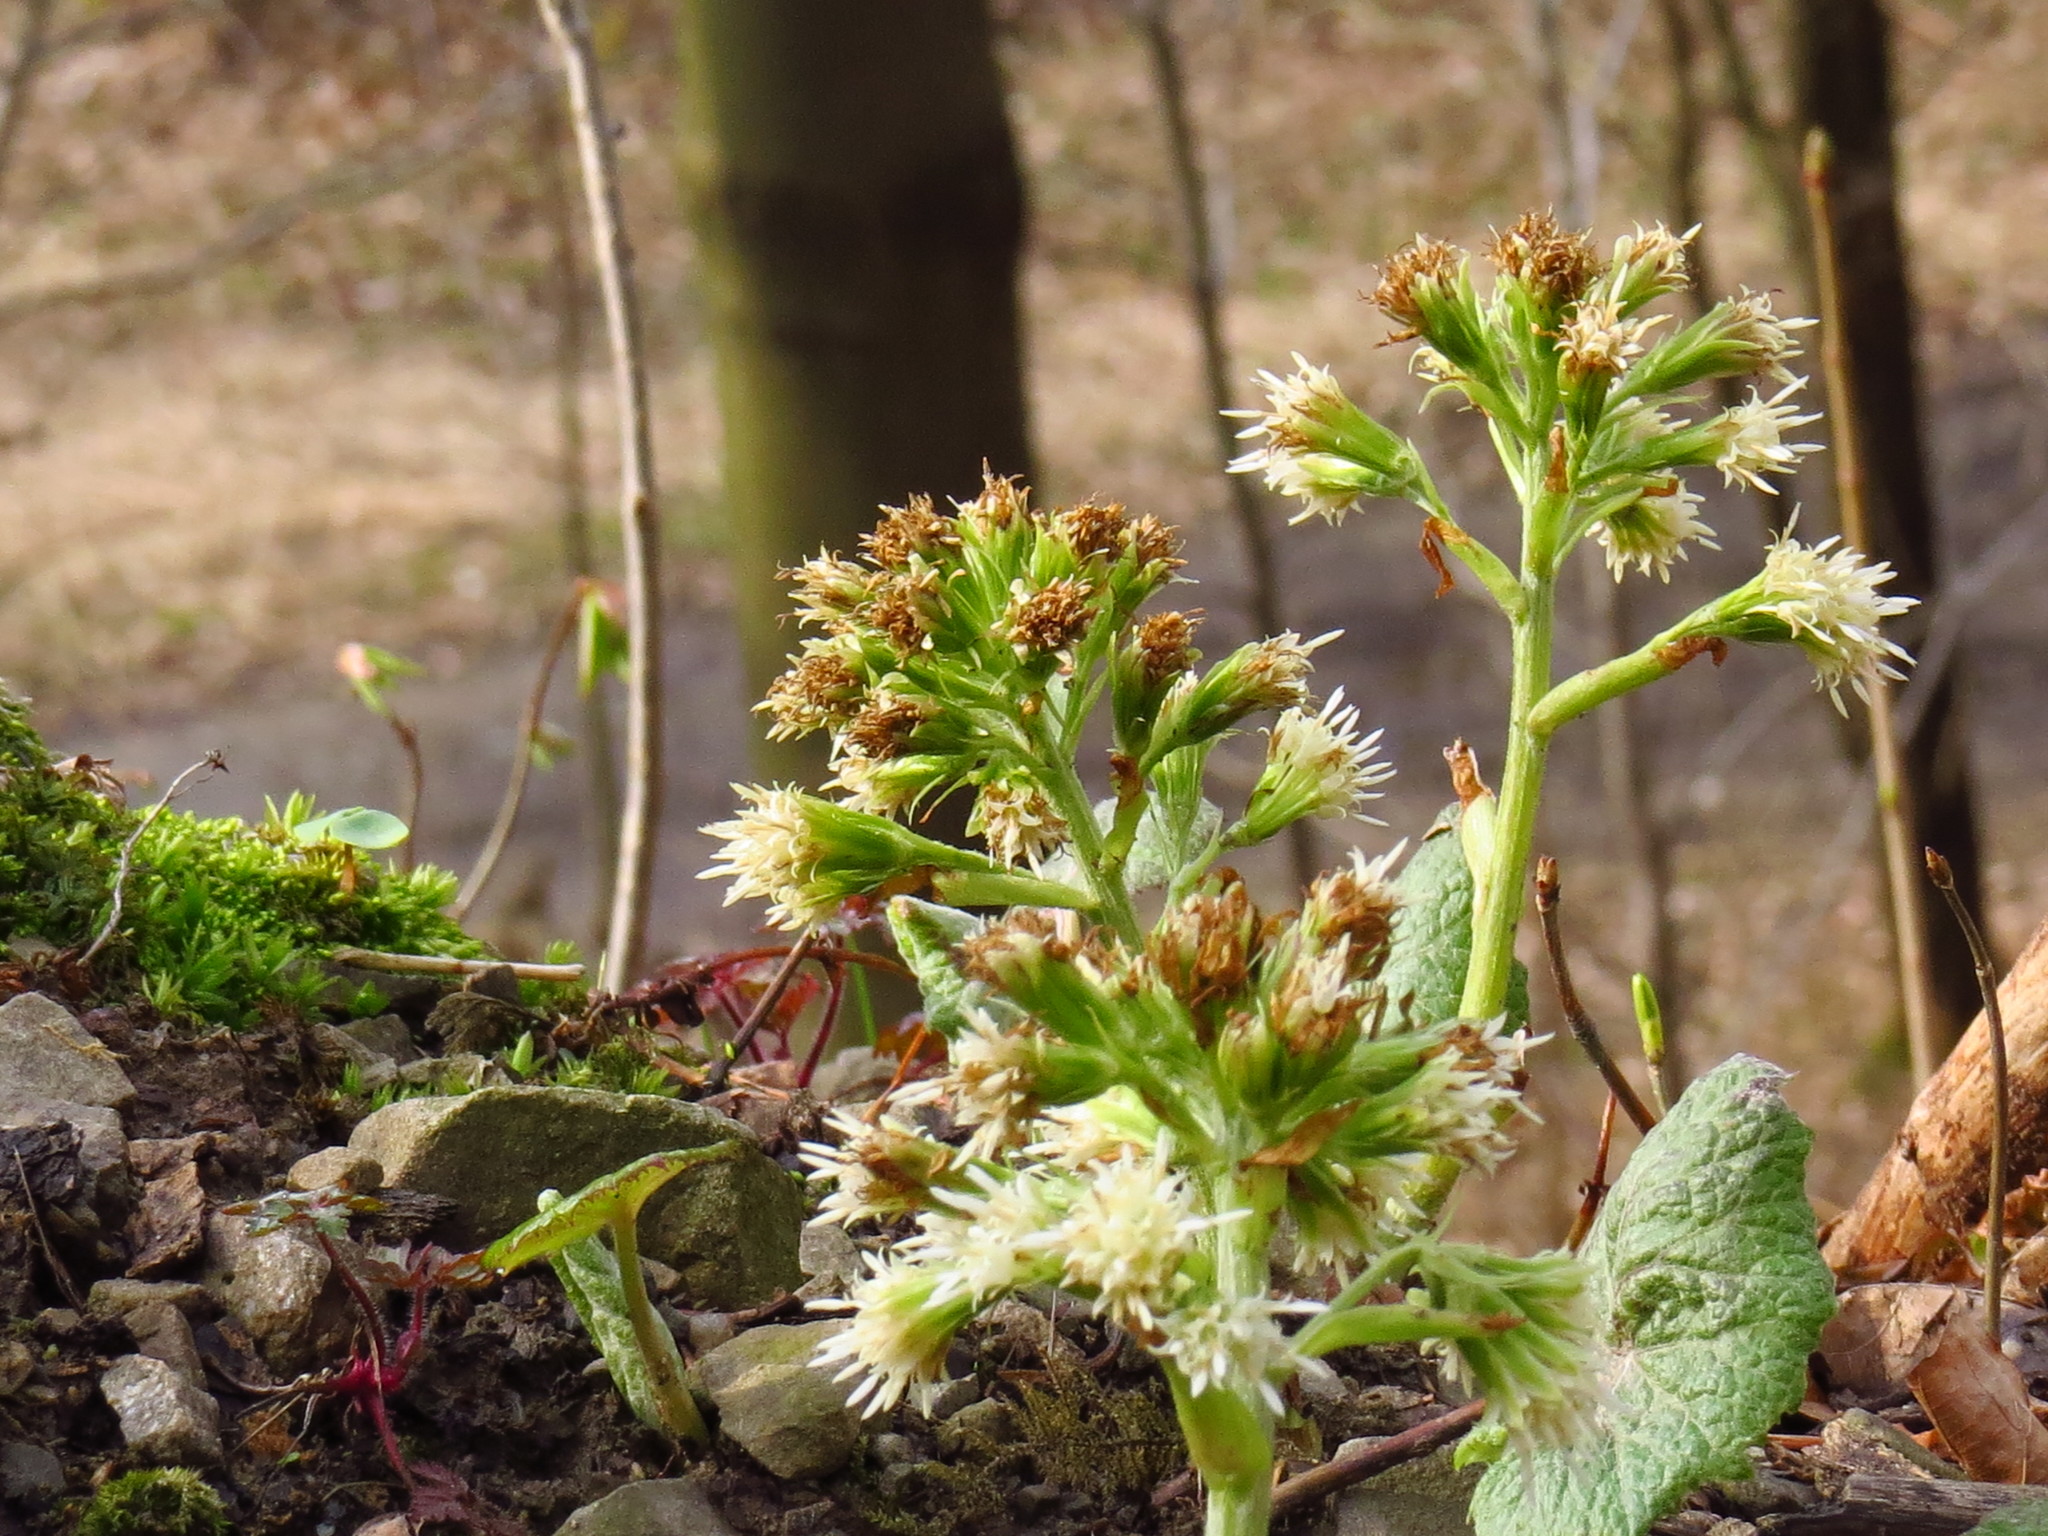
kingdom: Plantae
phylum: Tracheophyta
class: Magnoliopsida
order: Asterales
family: Asteraceae
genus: Petasites
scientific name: Petasites albus
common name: White butterbur
